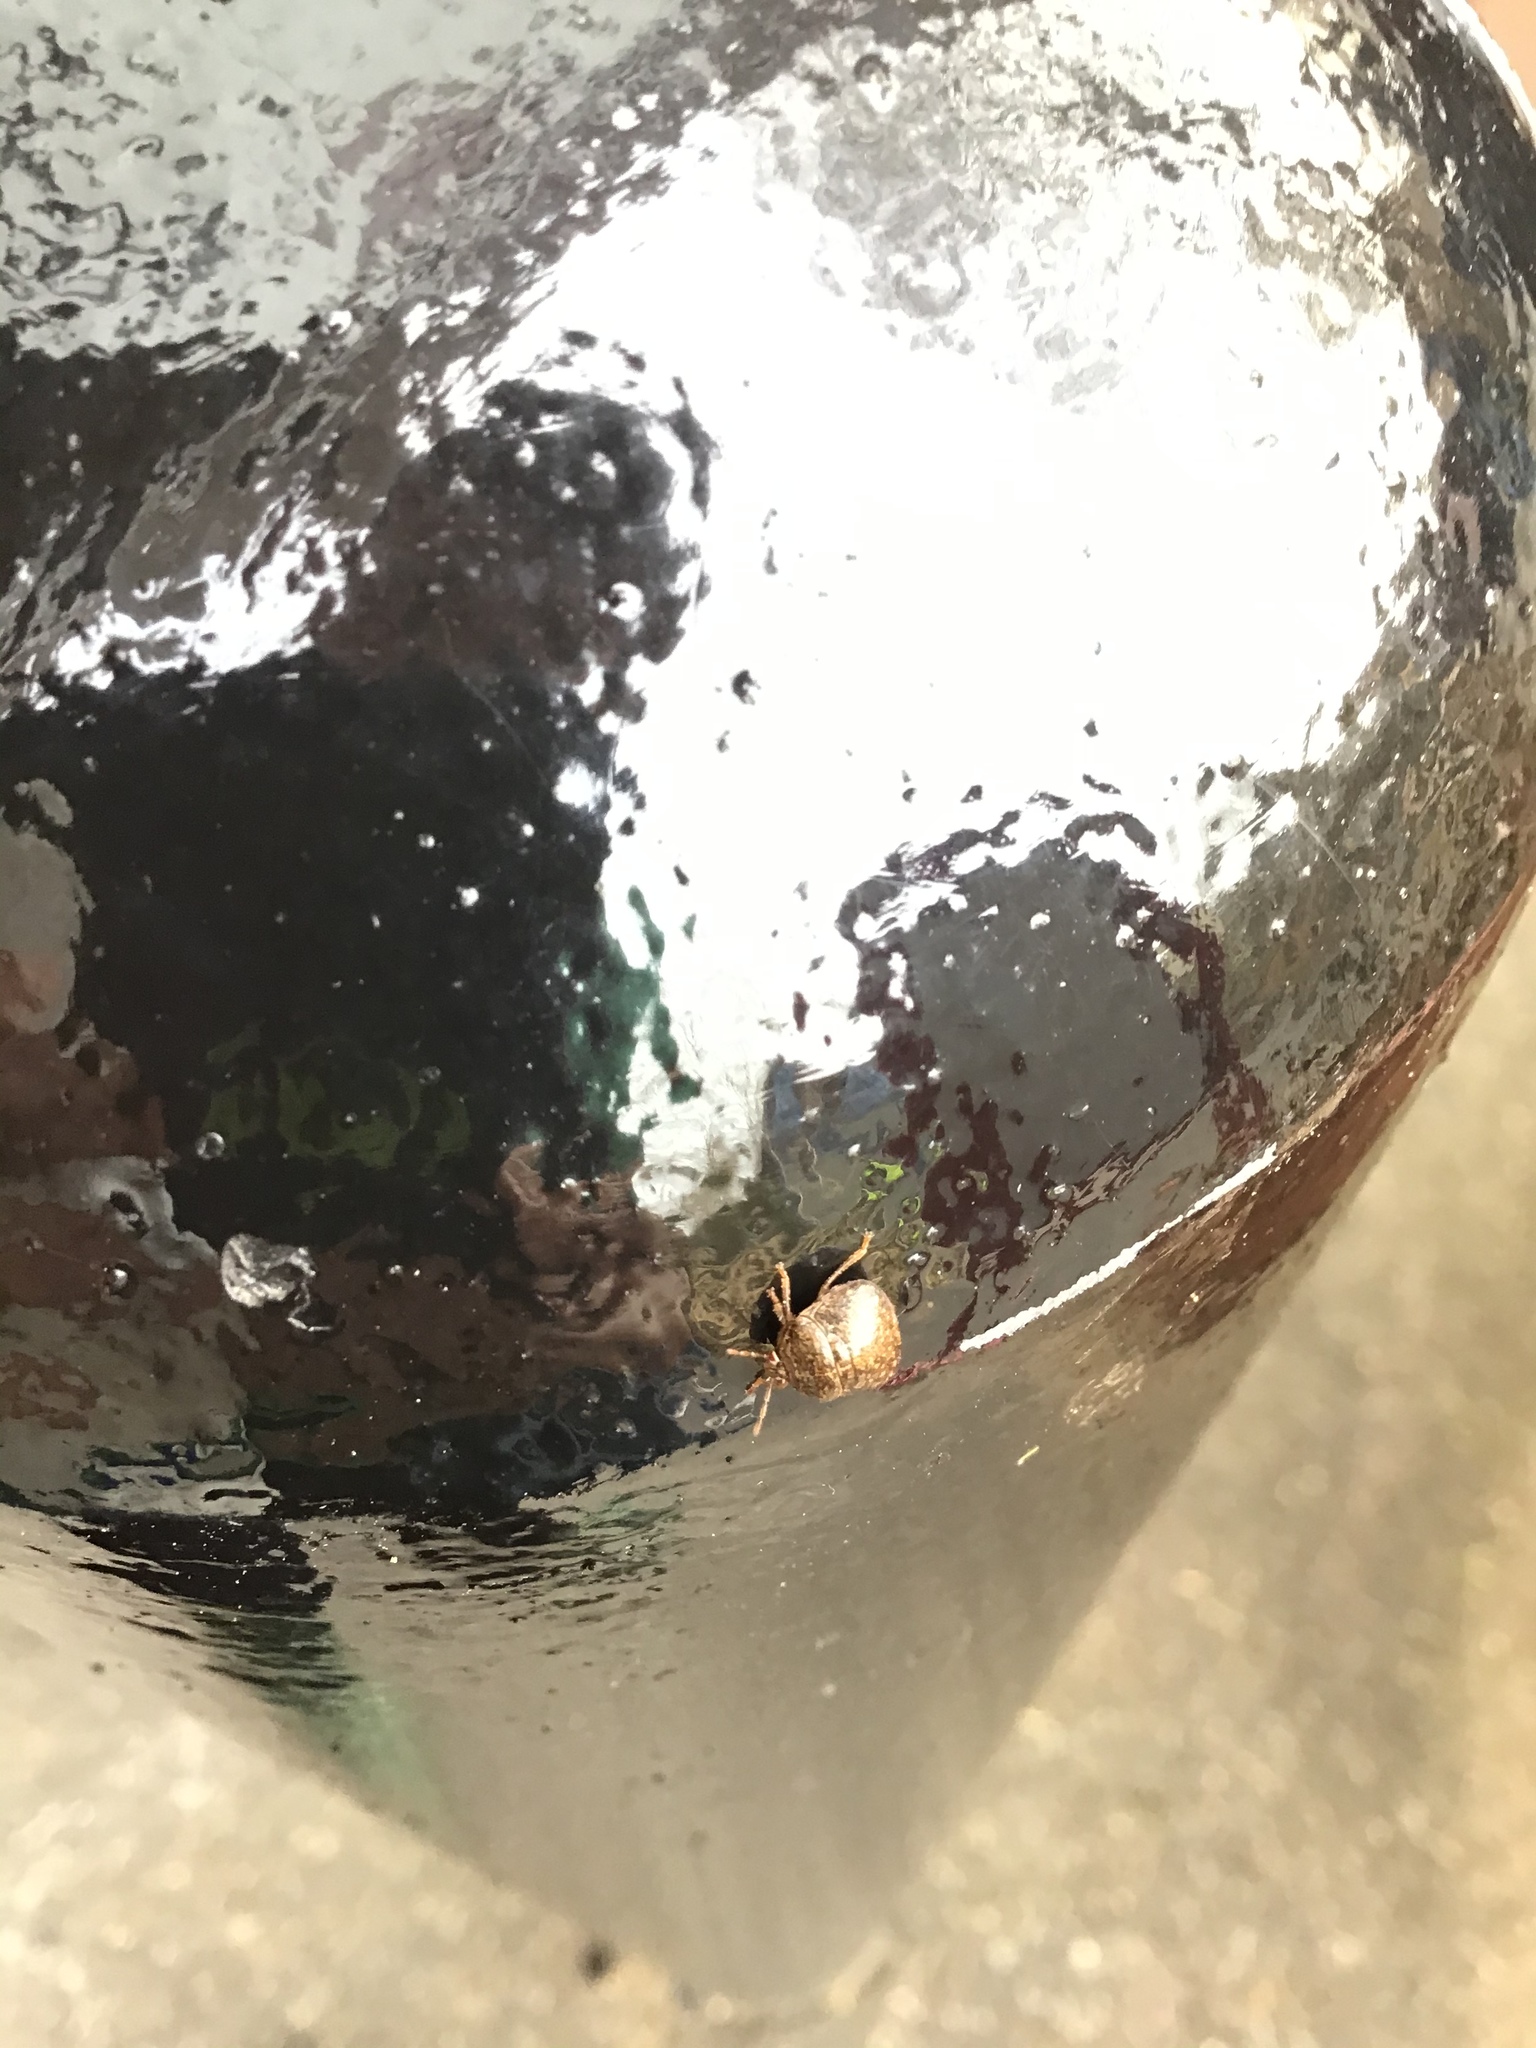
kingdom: Animalia
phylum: Arthropoda
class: Insecta
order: Hemiptera
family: Plataspidae
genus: Megacopta
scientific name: Megacopta cribraria
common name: Bean plataspid
